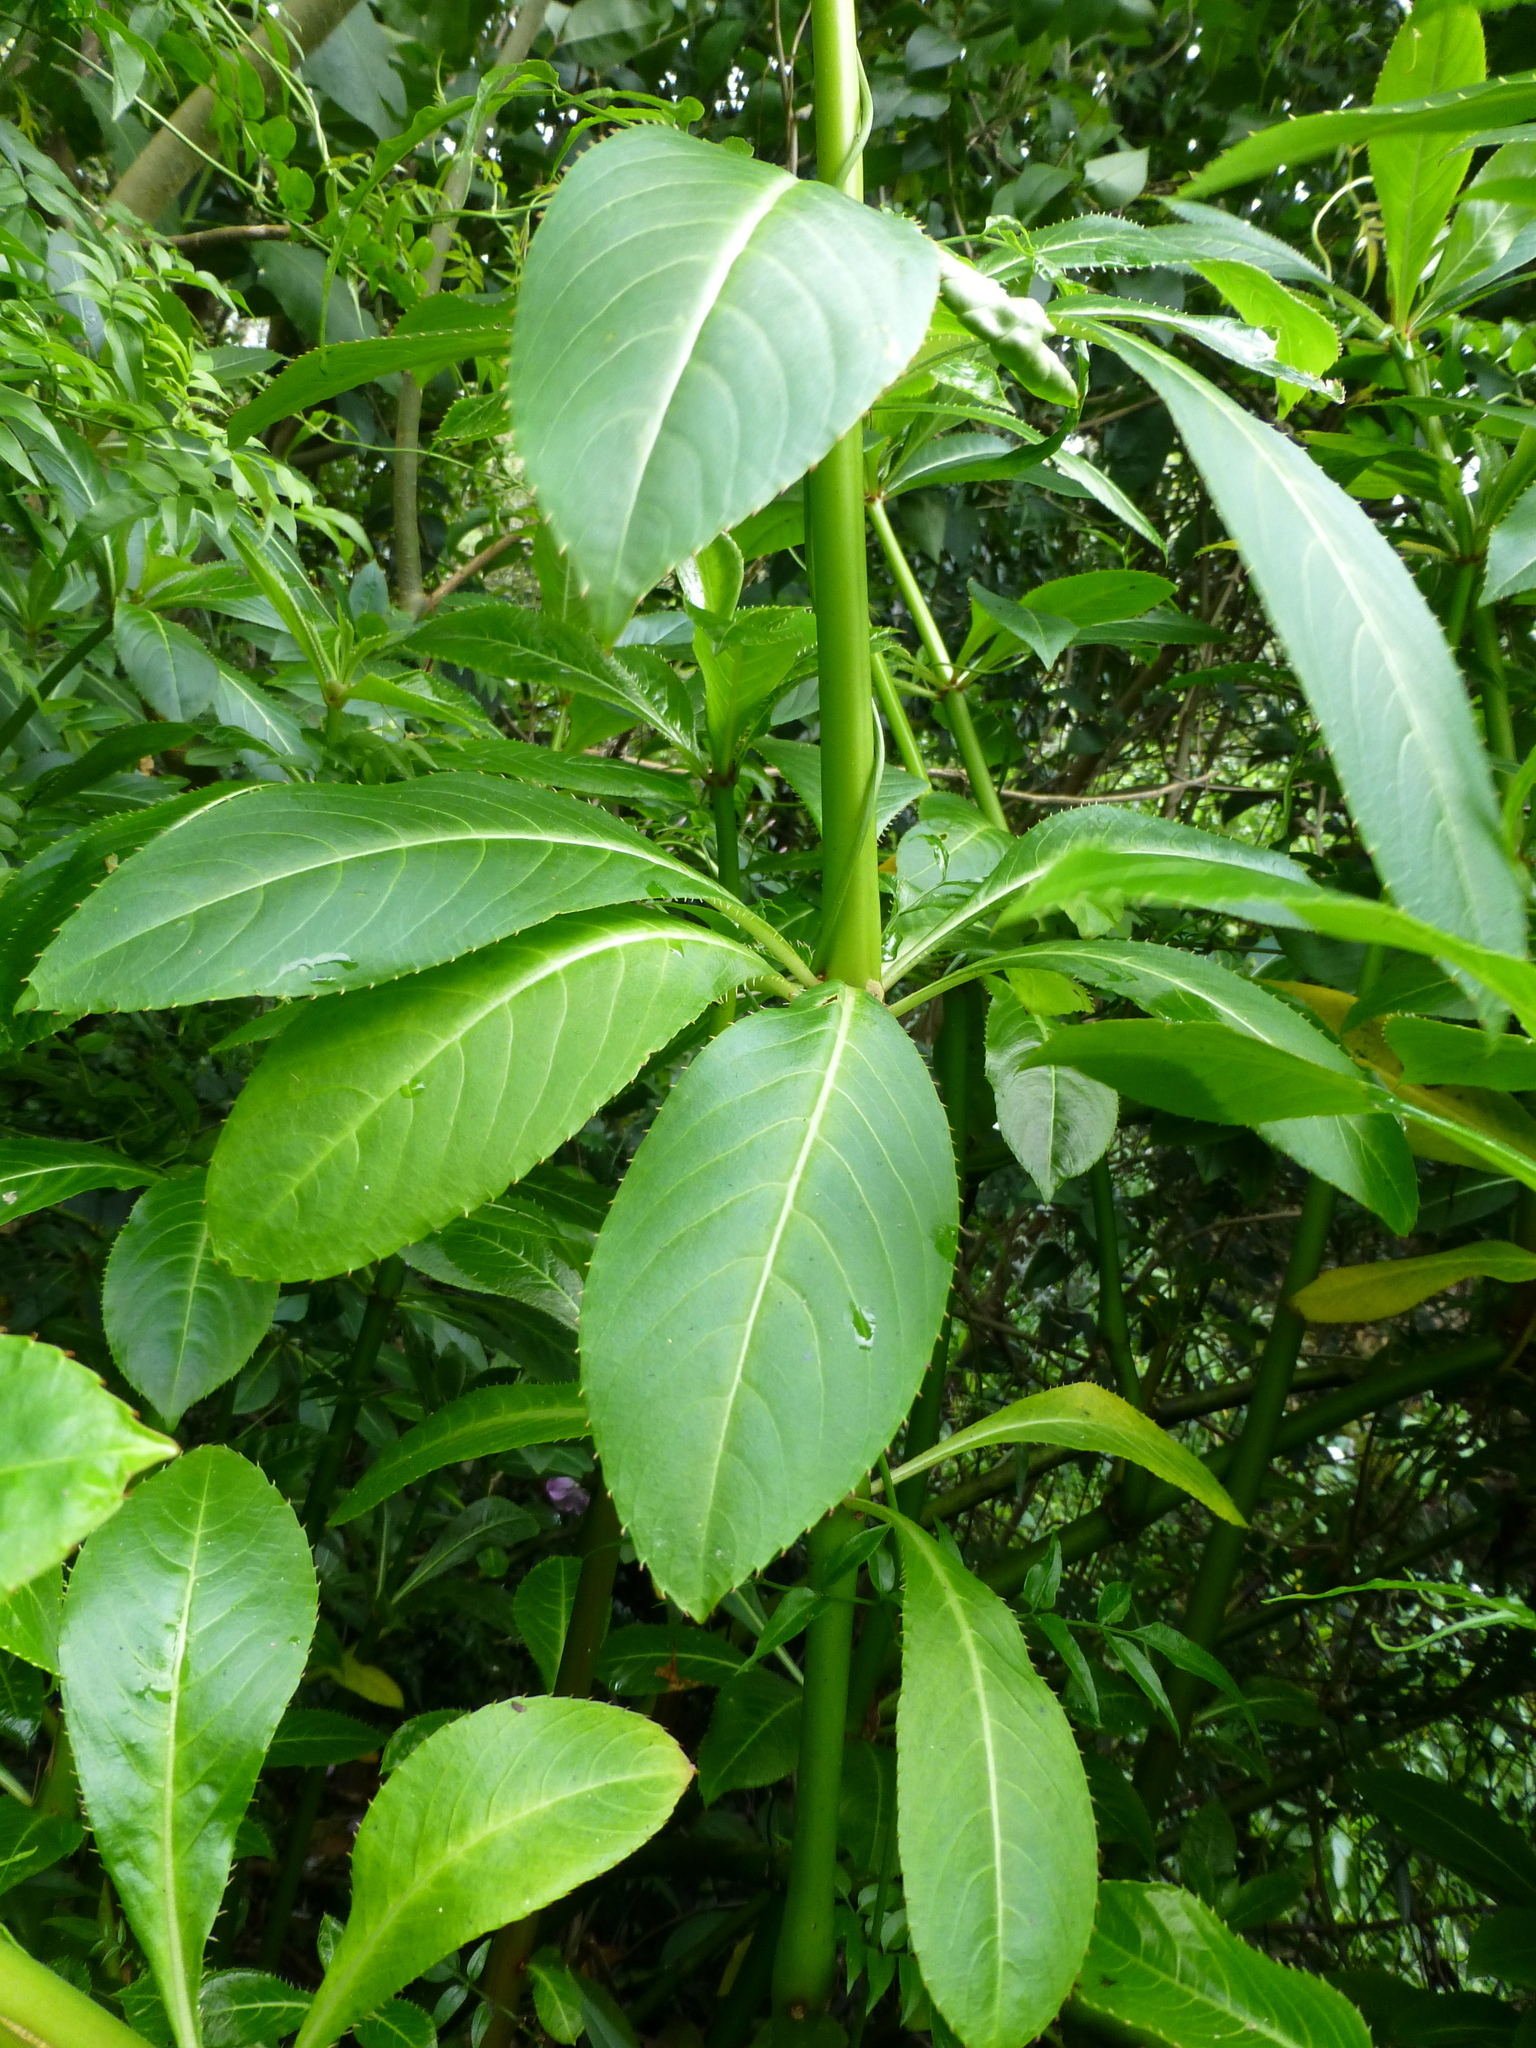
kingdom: Plantae
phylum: Tracheophyta
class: Magnoliopsida
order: Ericales
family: Balsaminaceae
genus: Impatiens
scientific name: Impatiens sodenii
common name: Oliver's touch-me-not
